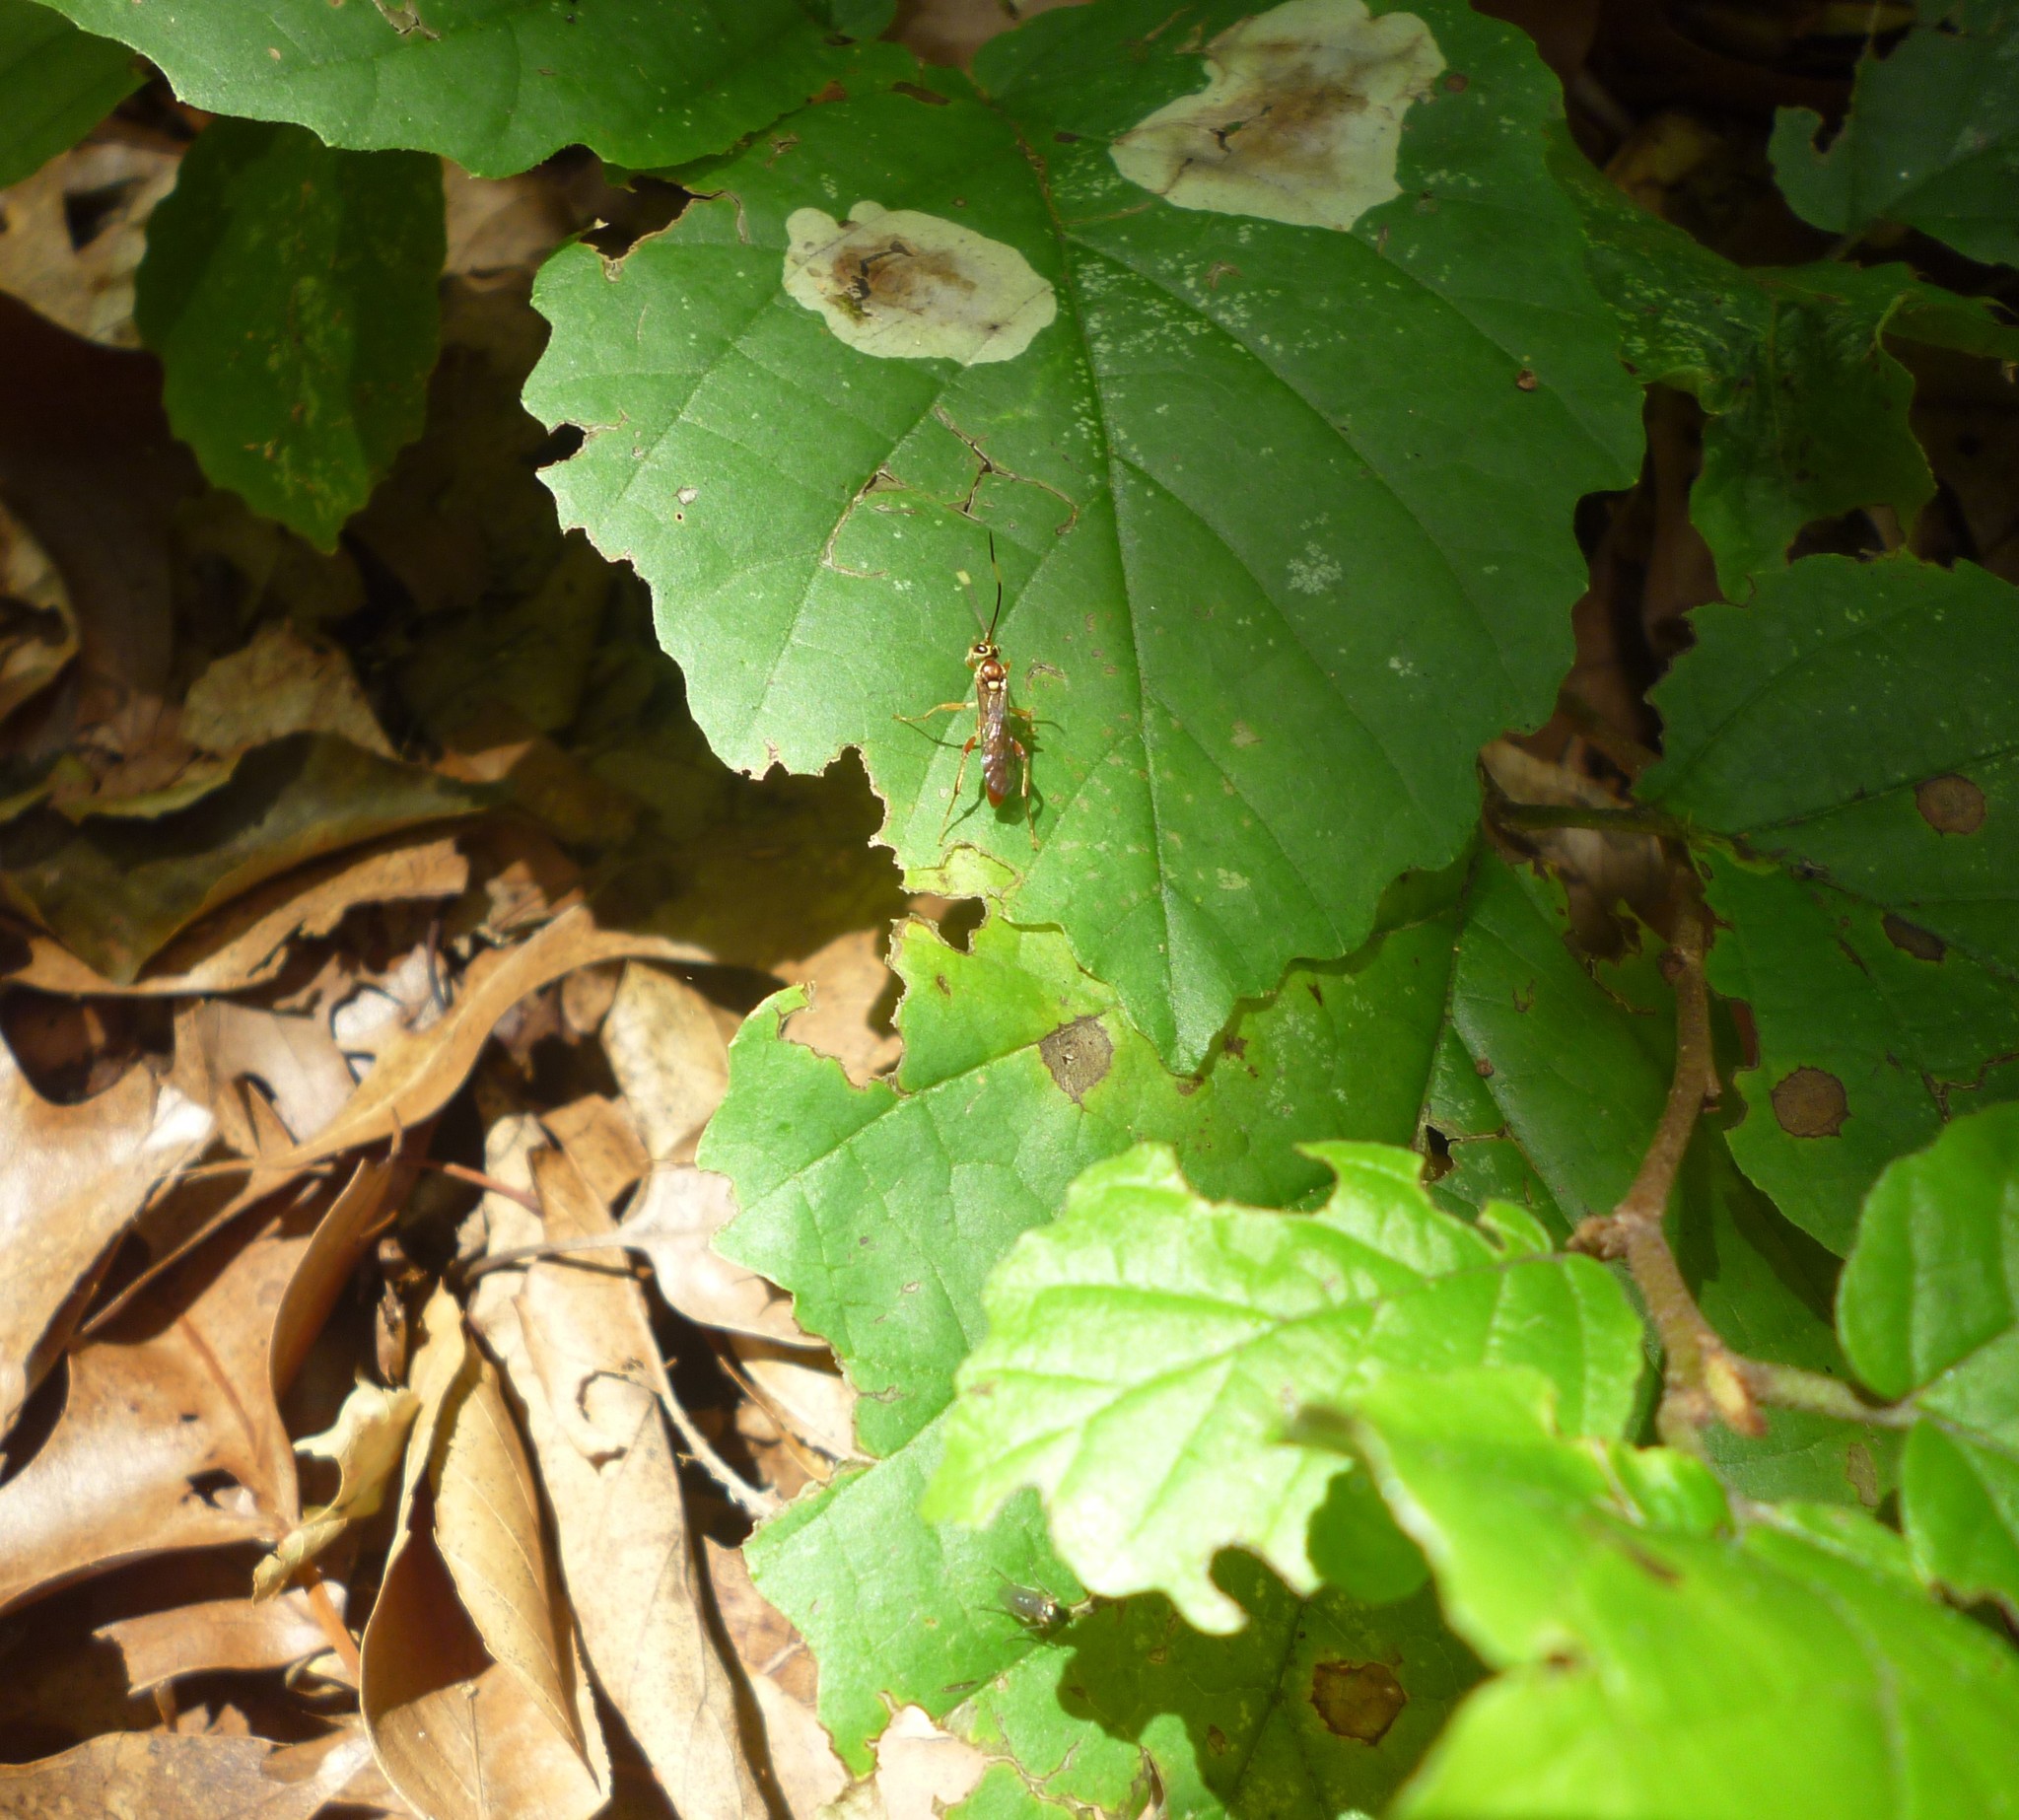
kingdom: Plantae
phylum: Tracheophyta
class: Magnoliopsida
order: Saxifragales
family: Hamamelidaceae
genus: Hamamelis
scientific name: Hamamelis virginiana
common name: Witch-hazel
